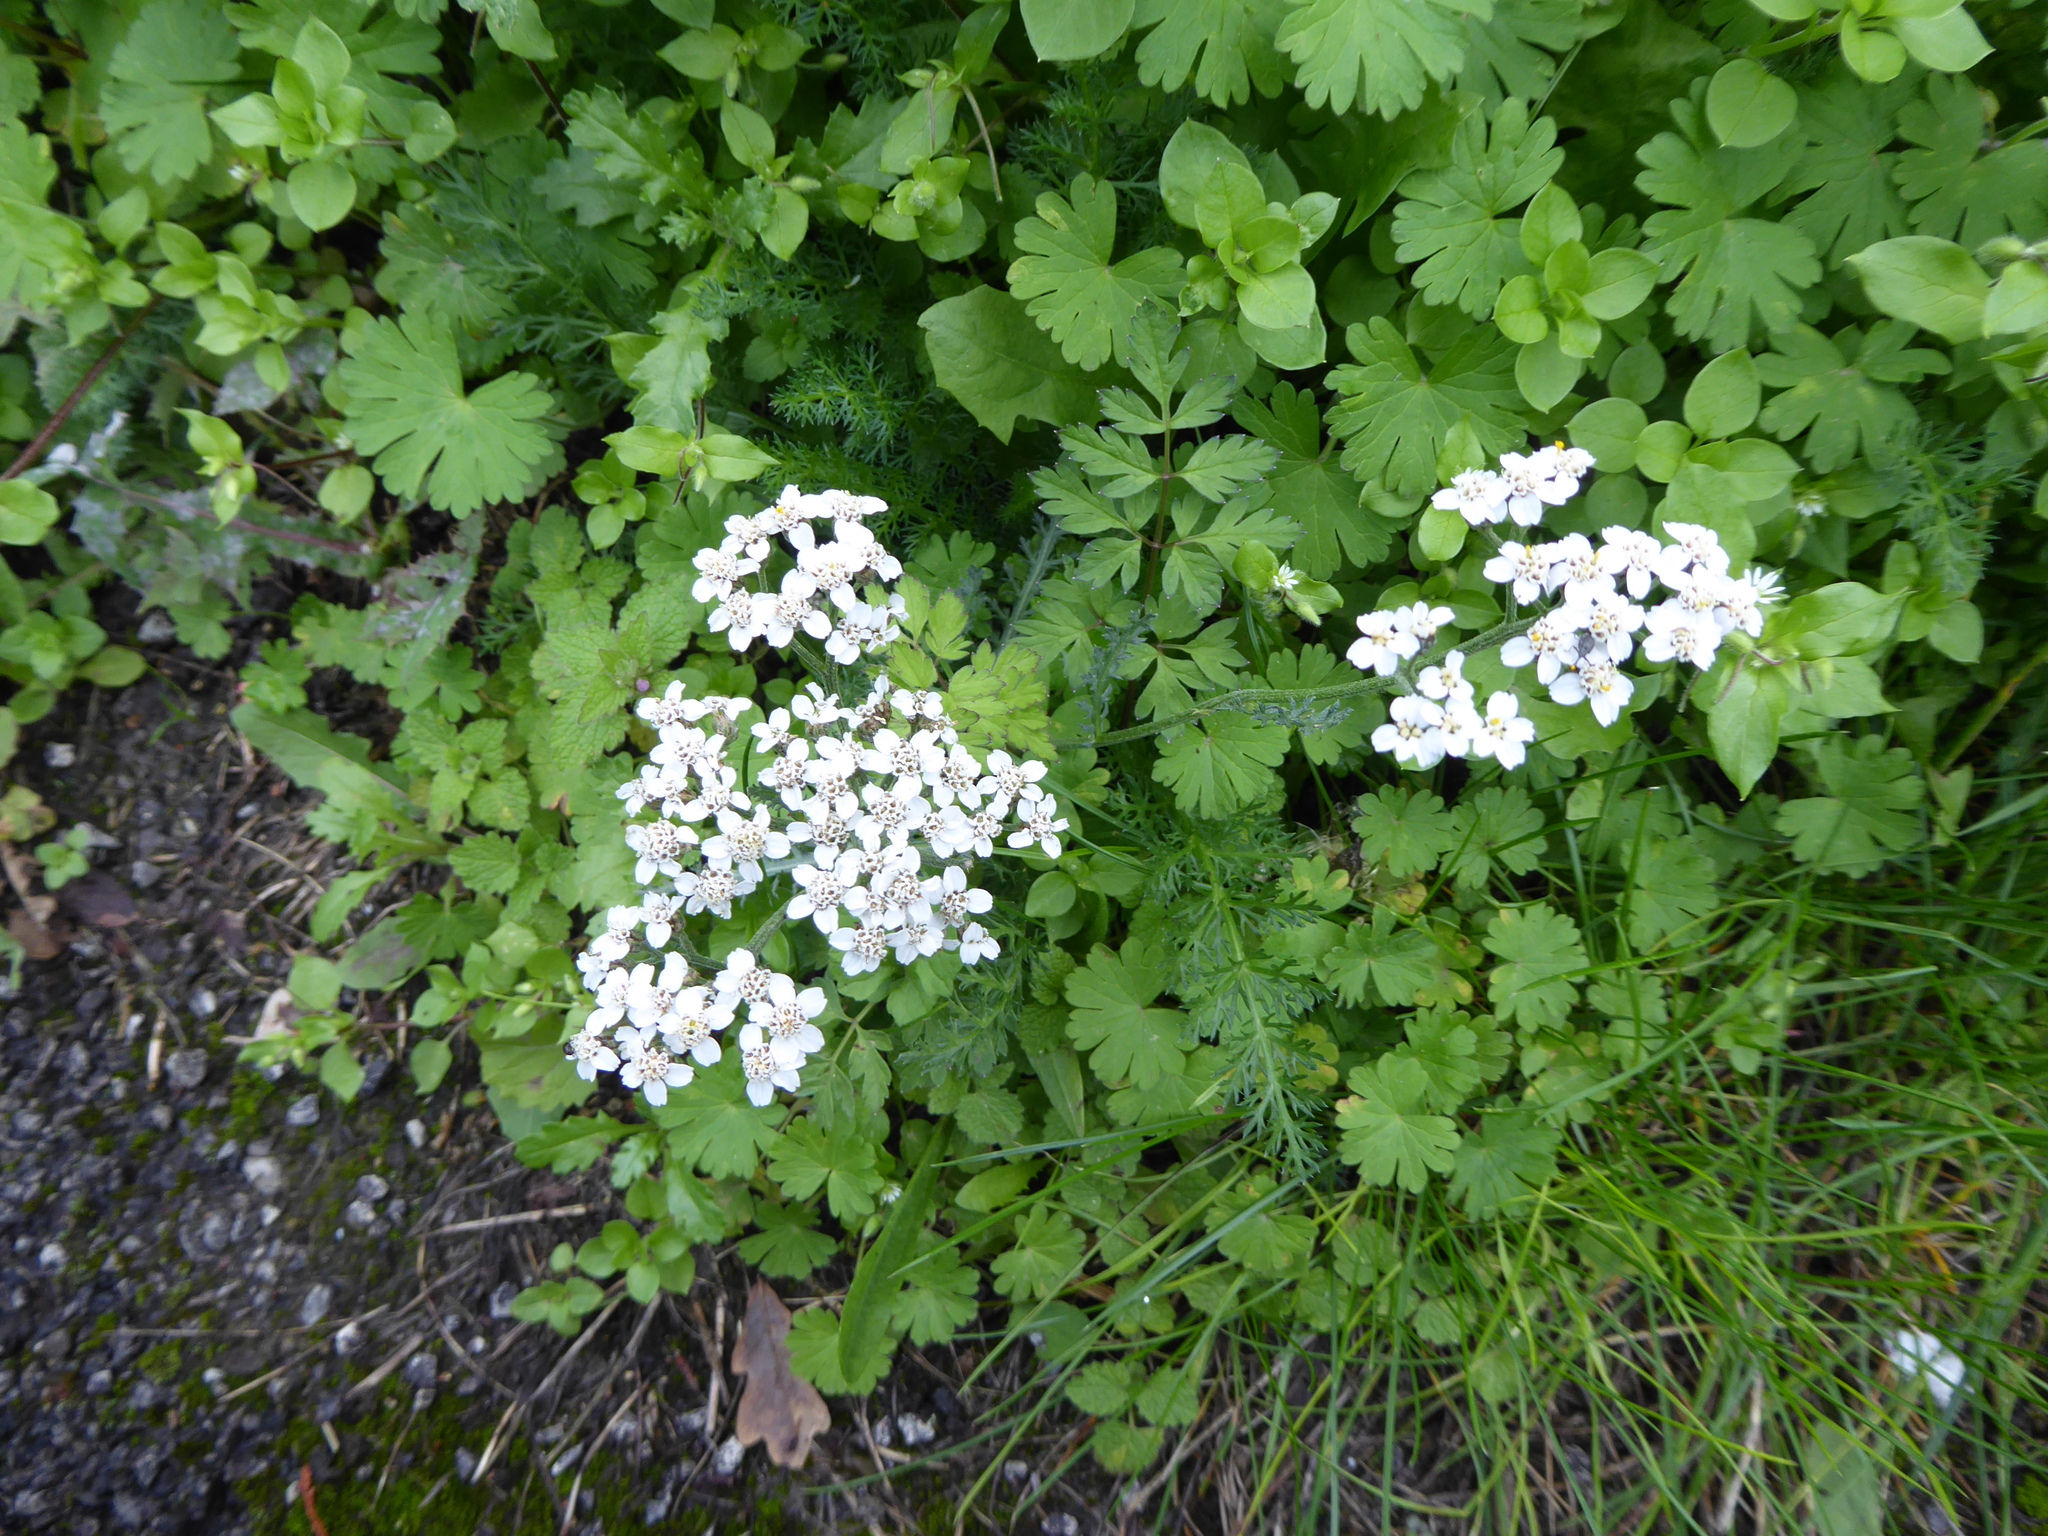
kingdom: Plantae
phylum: Tracheophyta
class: Magnoliopsida
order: Asterales
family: Asteraceae
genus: Achillea
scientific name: Achillea millefolium
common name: Yarrow
